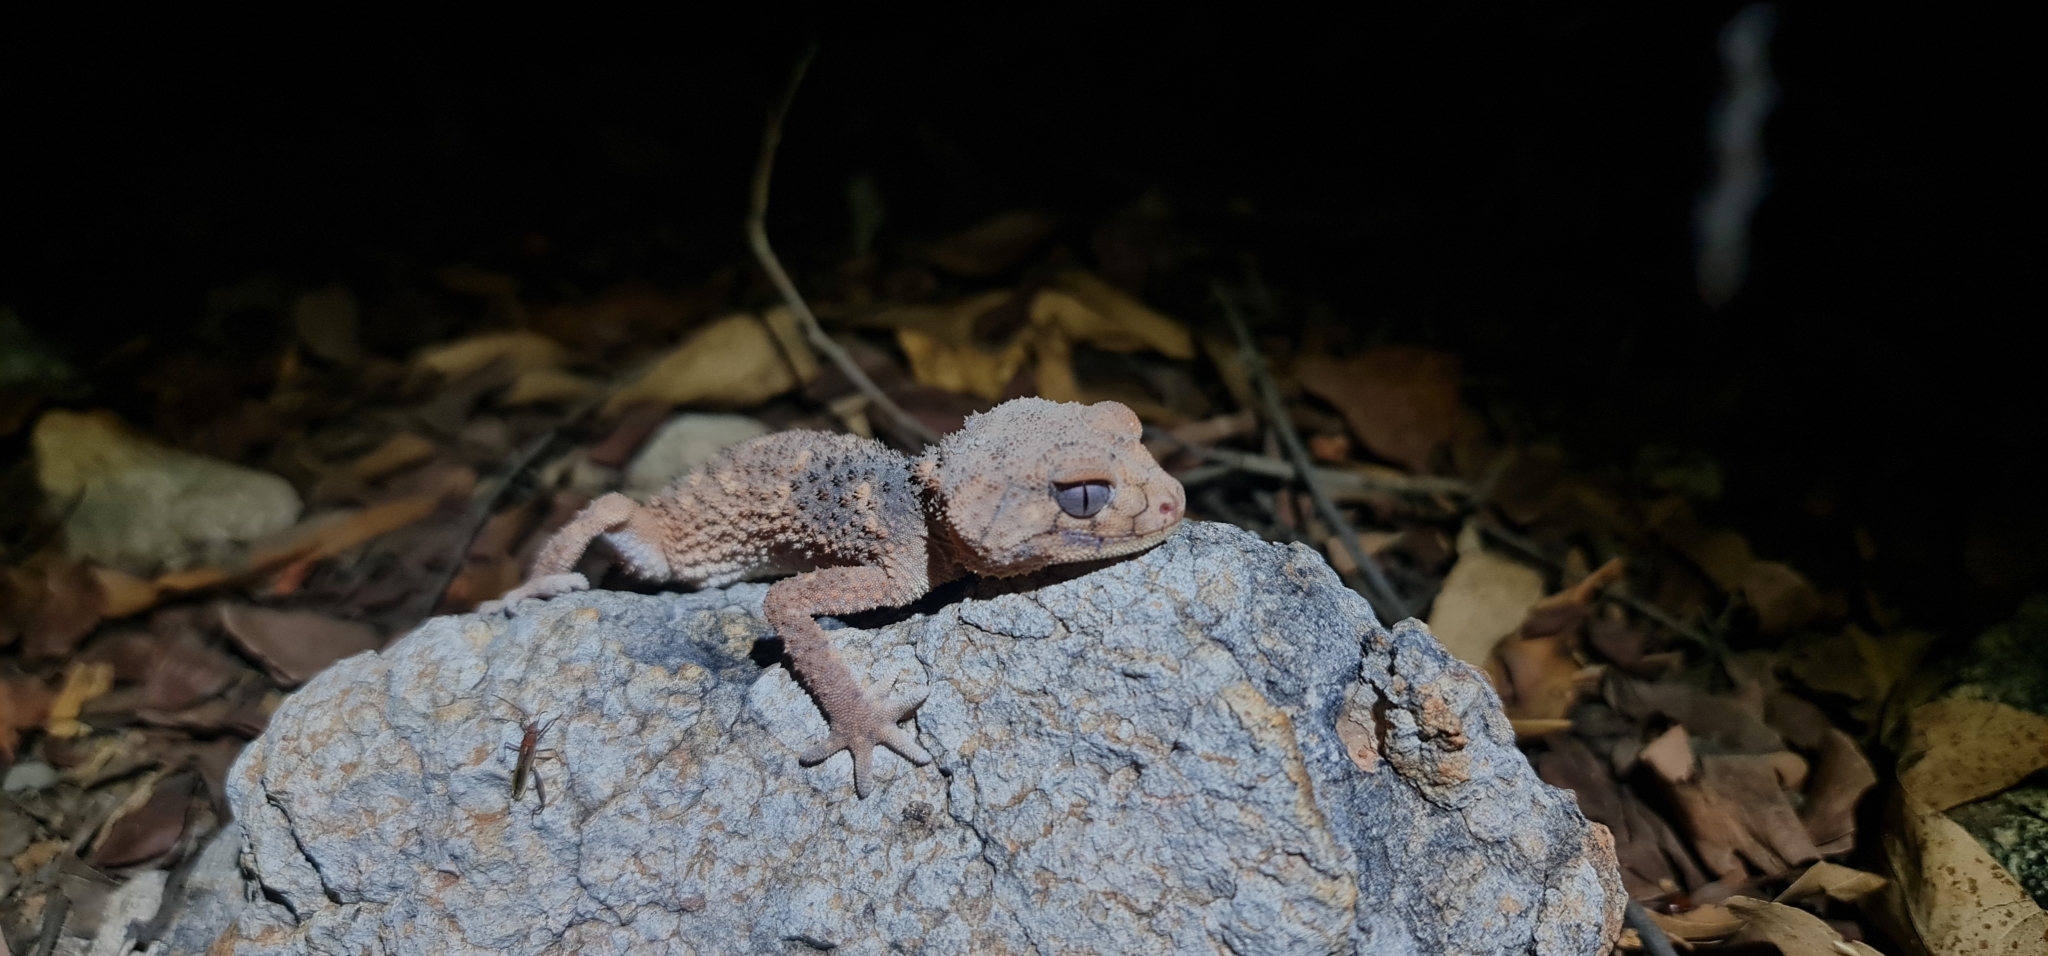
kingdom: Animalia
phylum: Chordata
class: Squamata
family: Carphodactylidae
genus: Nephrurus
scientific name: Nephrurus
